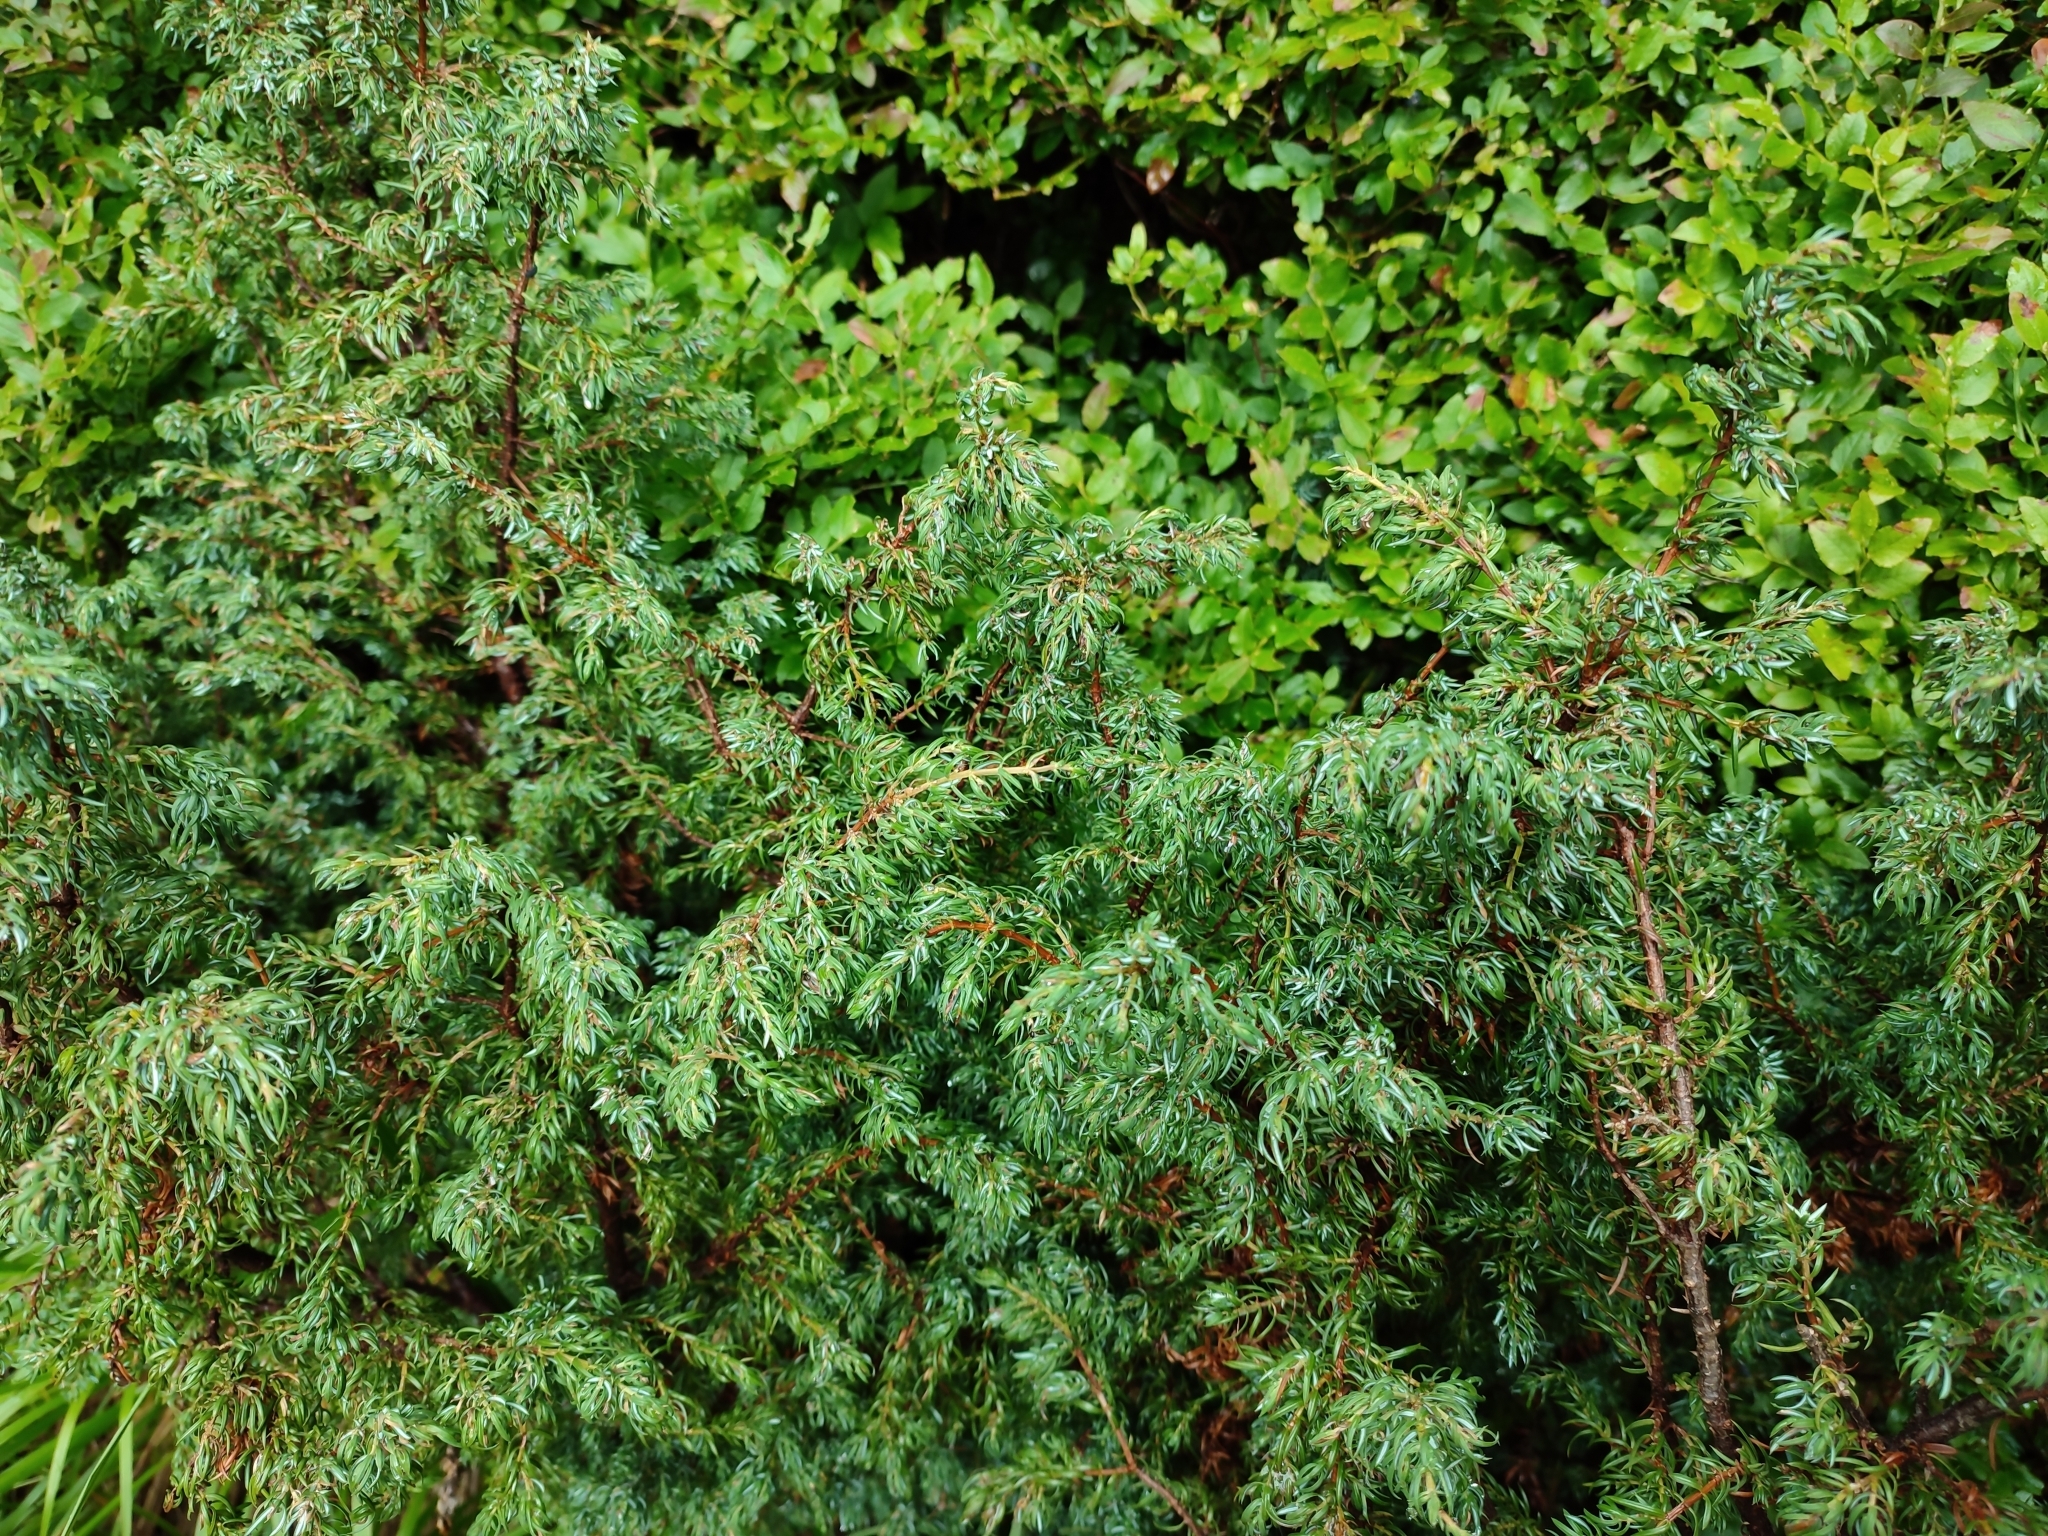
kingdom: Plantae
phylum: Tracheophyta
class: Pinopsida
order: Pinales
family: Cupressaceae
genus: Juniperus
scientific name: Juniperus communis
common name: Common juniper
